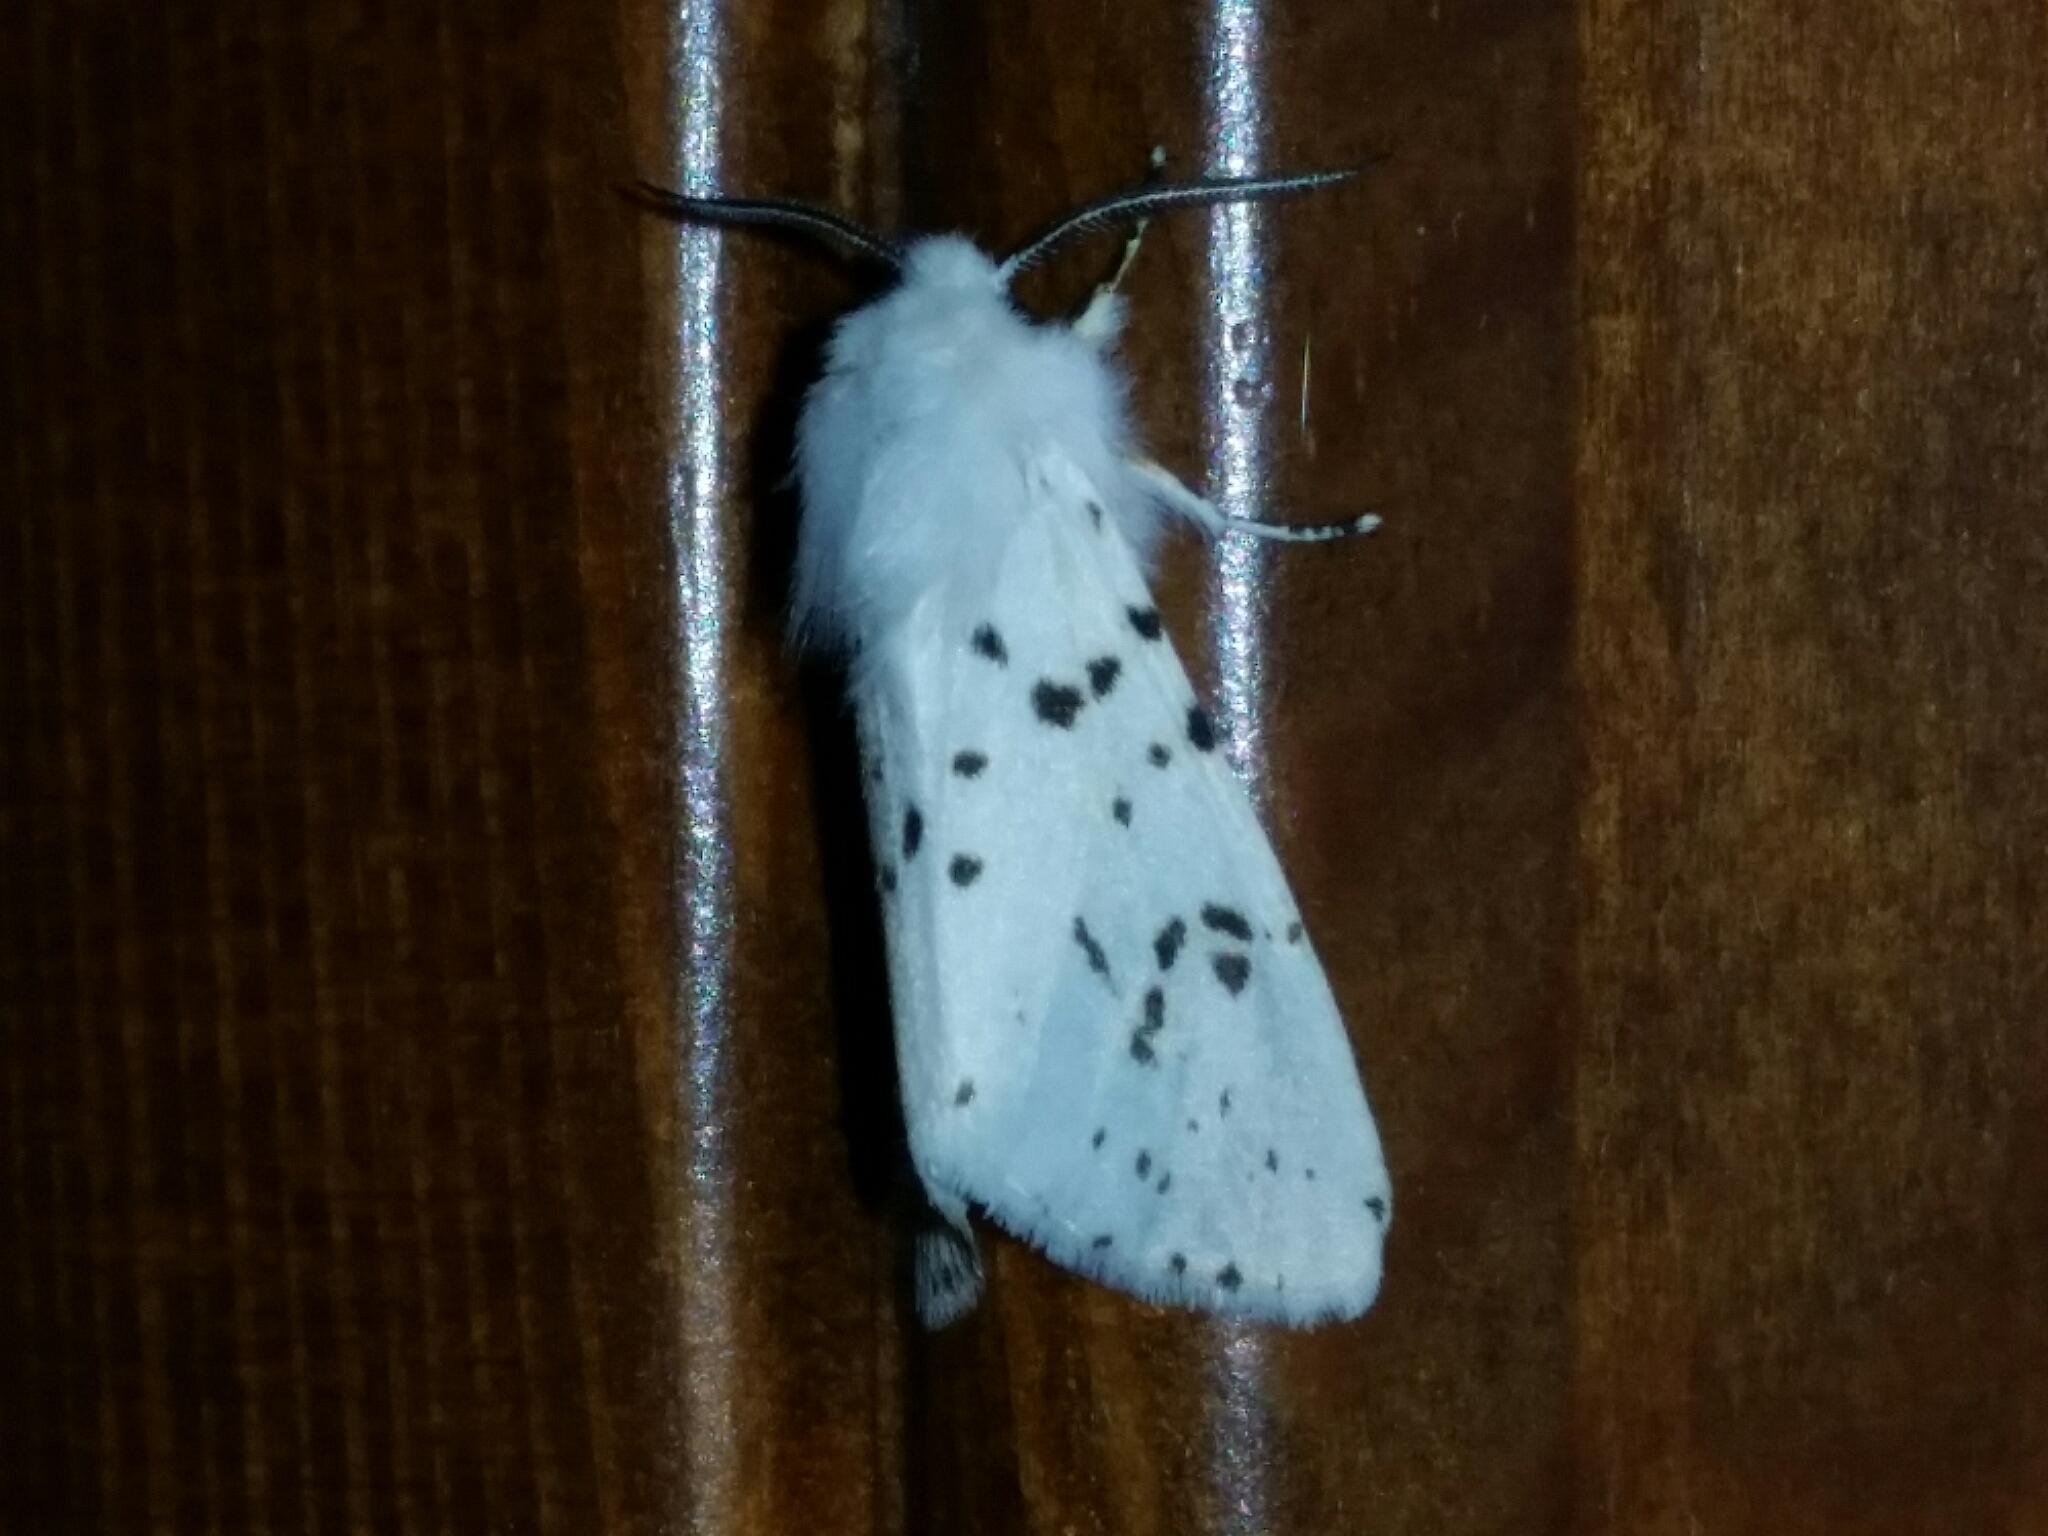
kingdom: Animalia
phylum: Arthropoda
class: Insecta
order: Lepidoptera
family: Erebidae
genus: Spilosoma
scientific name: Spilosoma lubricipeda
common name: White ermine
